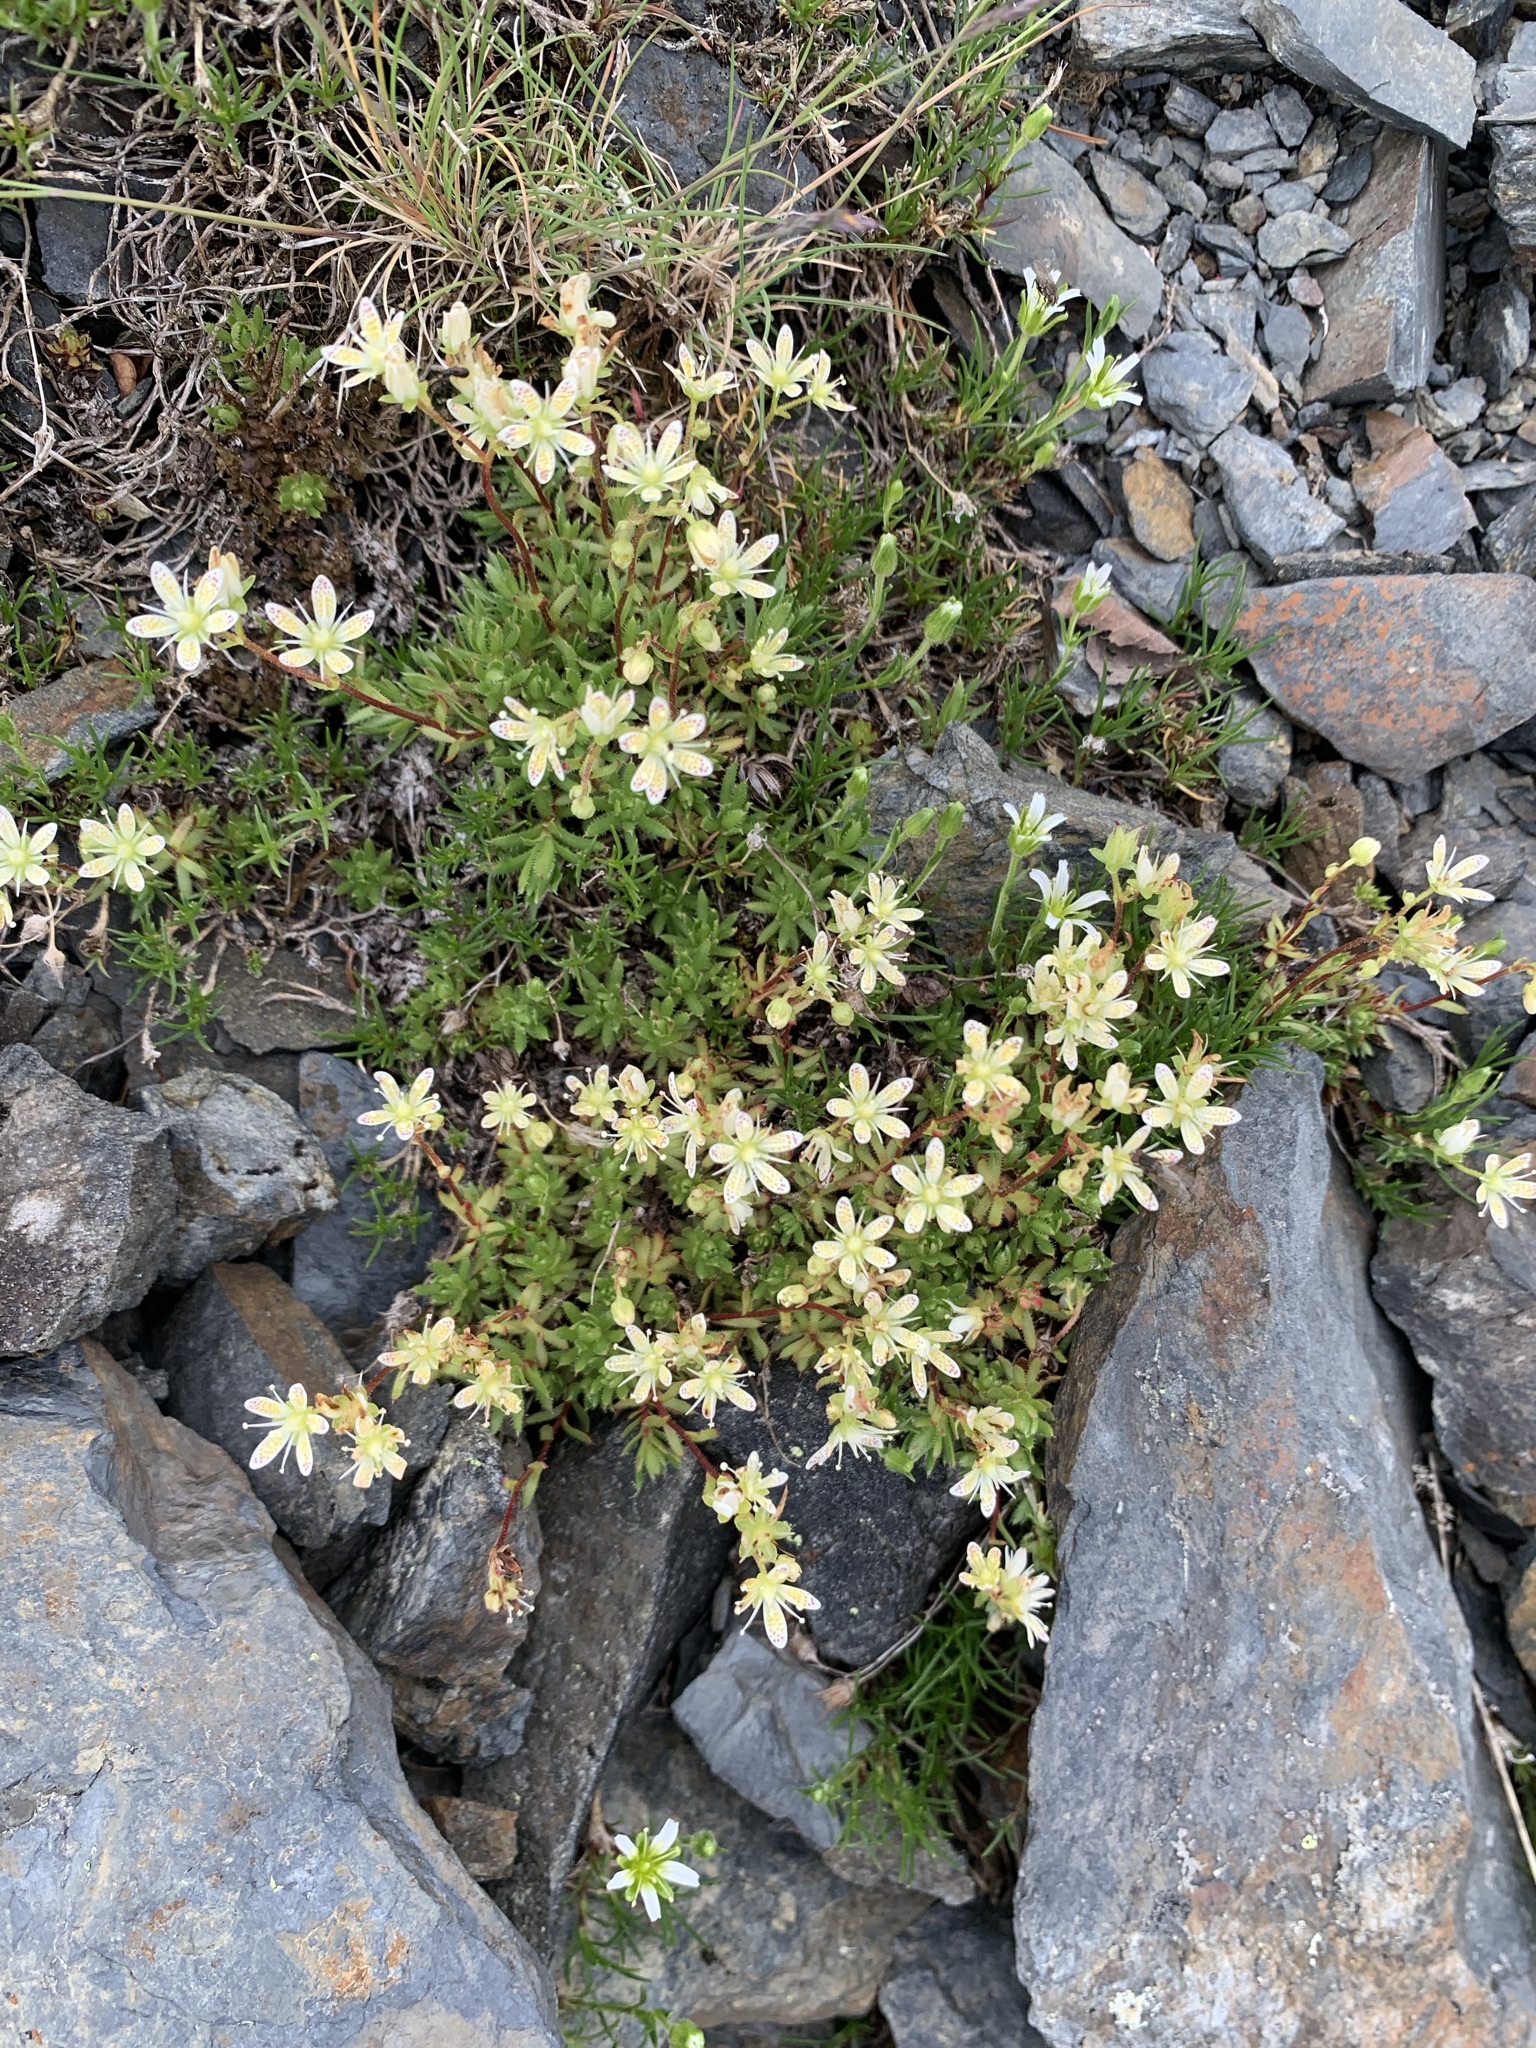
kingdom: Plantae
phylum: Tracheophyta
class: Magnoliopsida
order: Saxifragales
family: Saxifragaceae
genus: Saxifraga
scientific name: Saxifraga bronchialis
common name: Matted saxifrage
